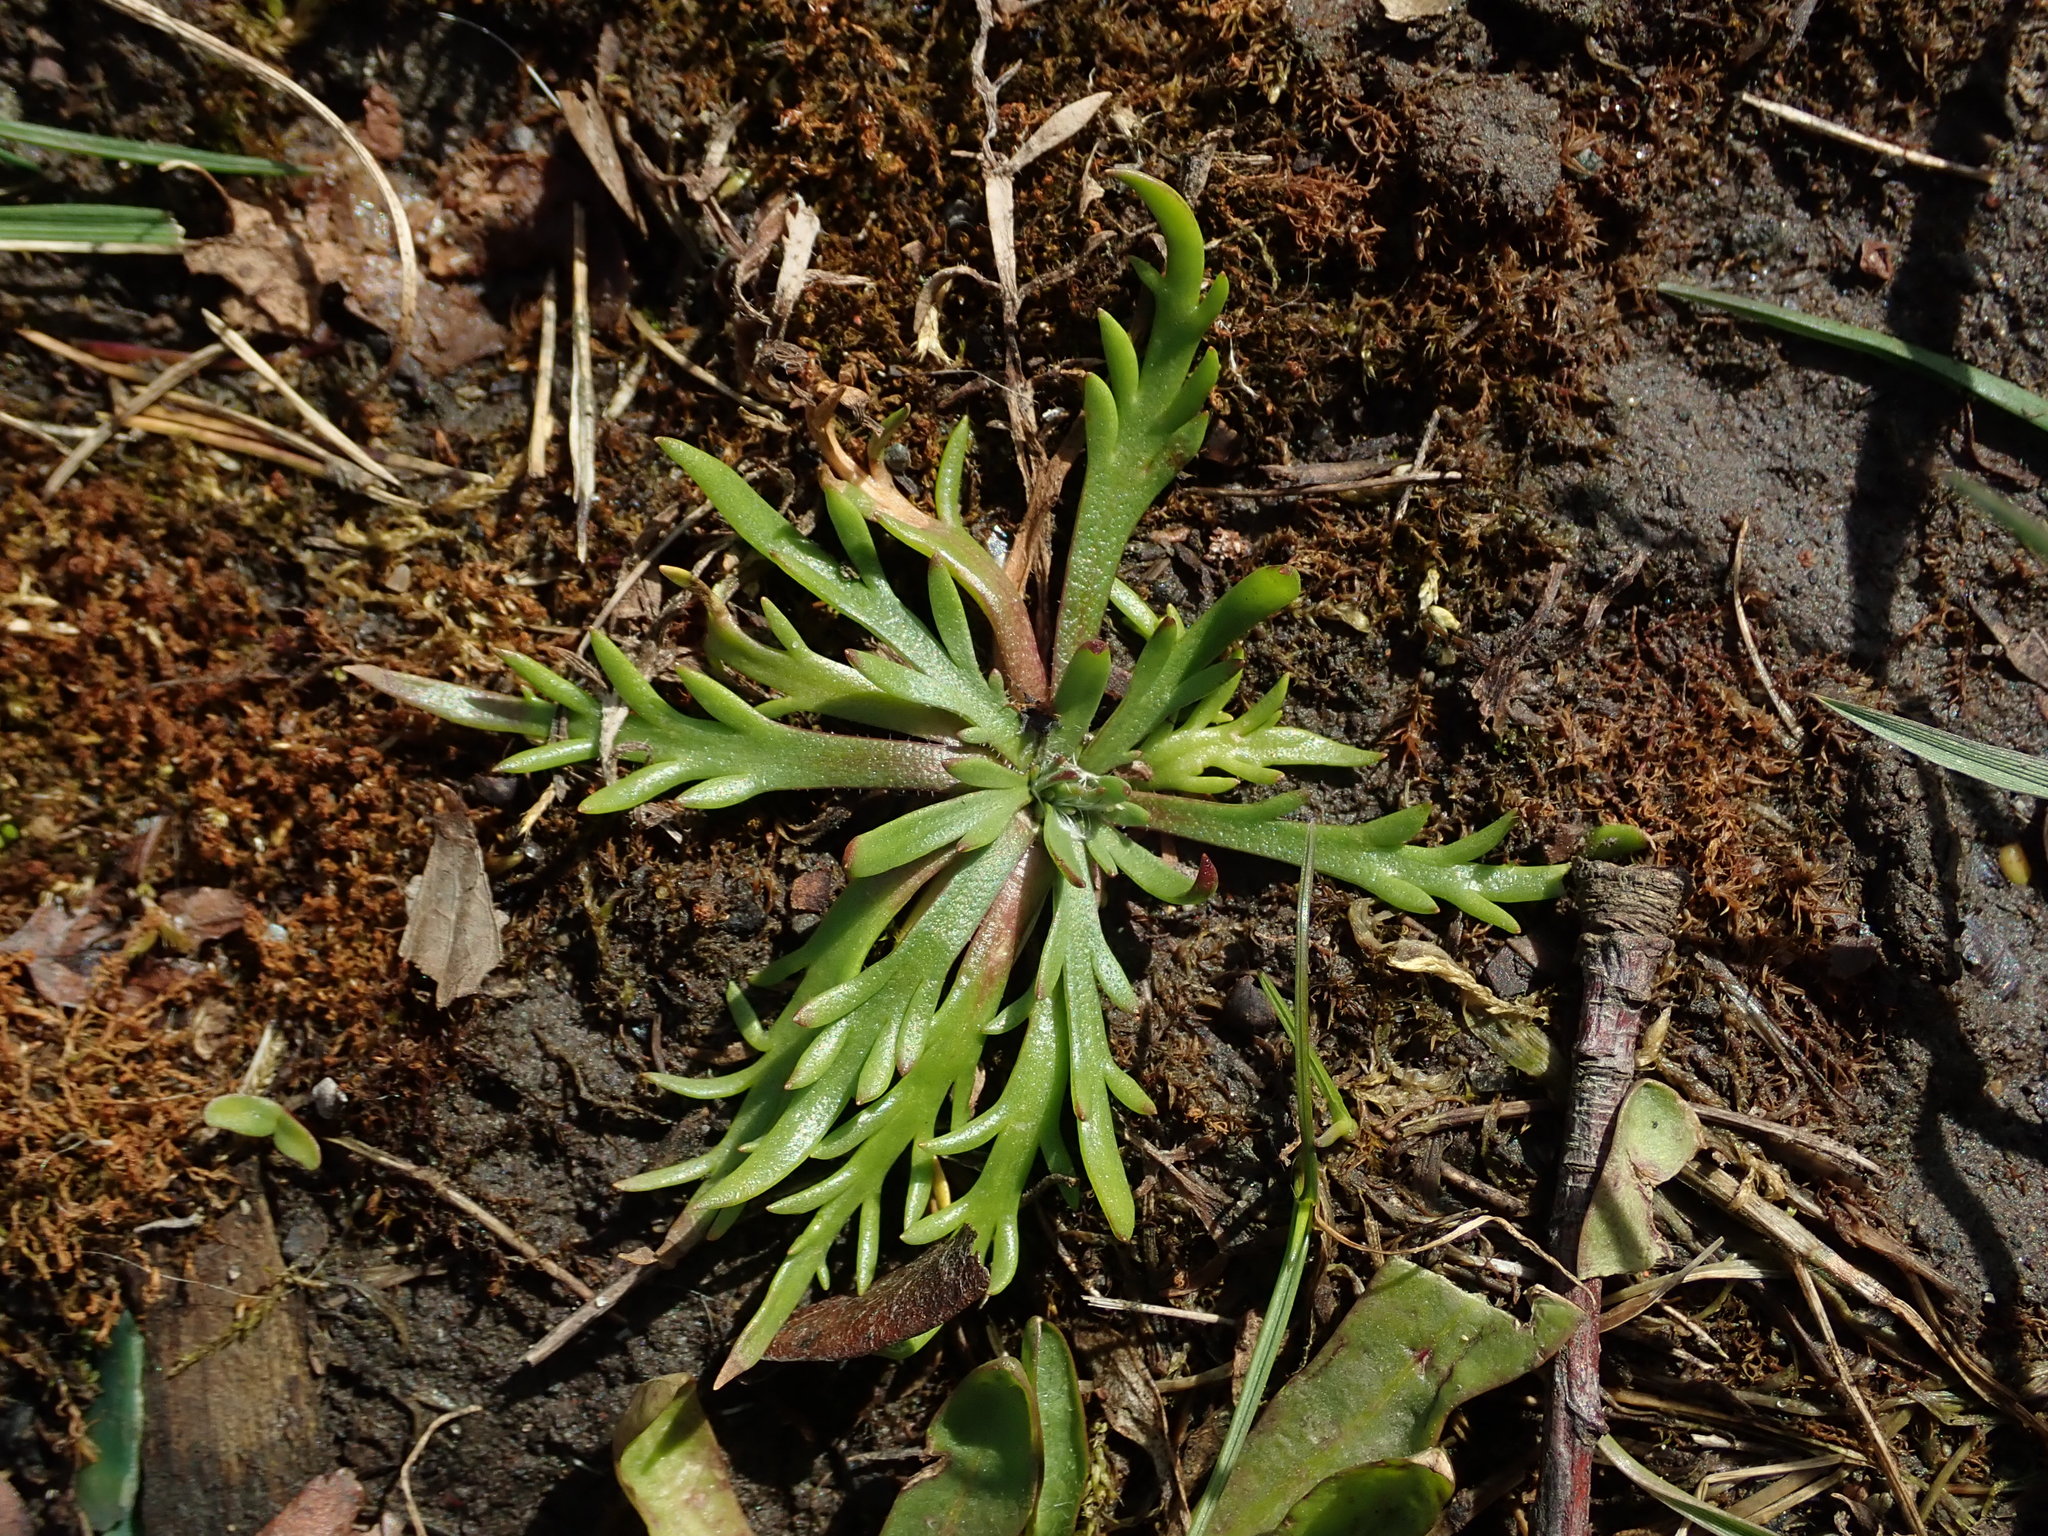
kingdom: Plantae
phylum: Tracheophyta
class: Magnoliopsida
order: Lamiales
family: Plantaginaceae
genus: Plantago
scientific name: Plantago coronopus
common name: Buck's-horn plantain
